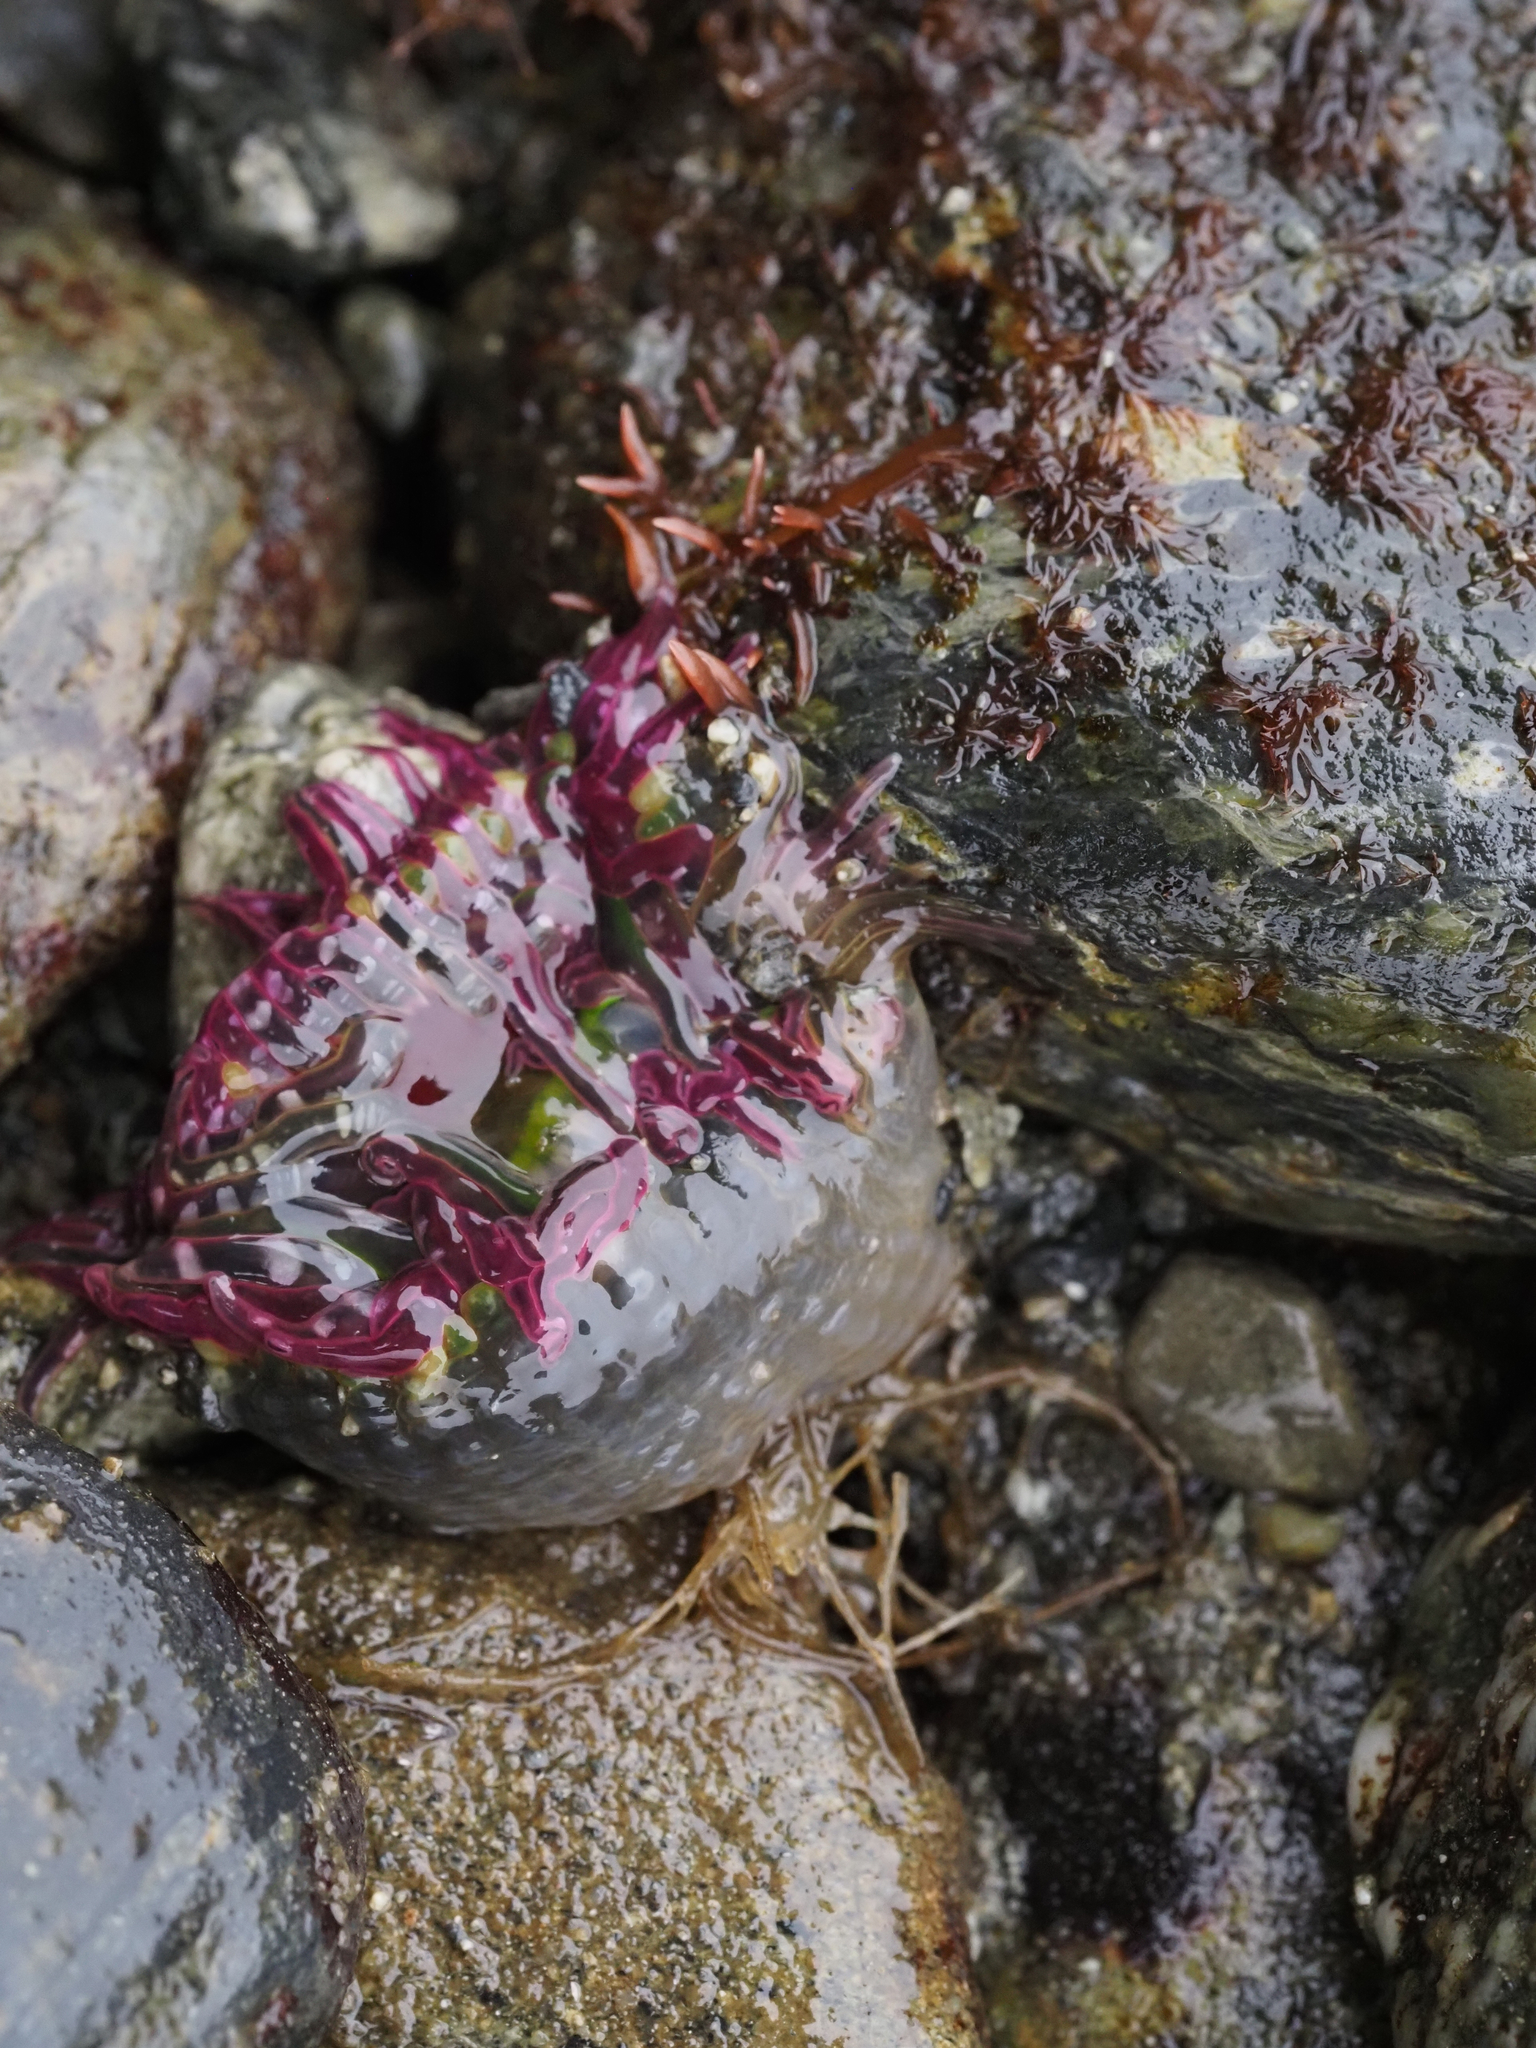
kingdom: Animalia
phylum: Cnidaria
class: Anthozoa
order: Actiniaria
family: Actiniidae
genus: Anthopleura
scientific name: Anthopleura artemisia
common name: Buried sea anemone
